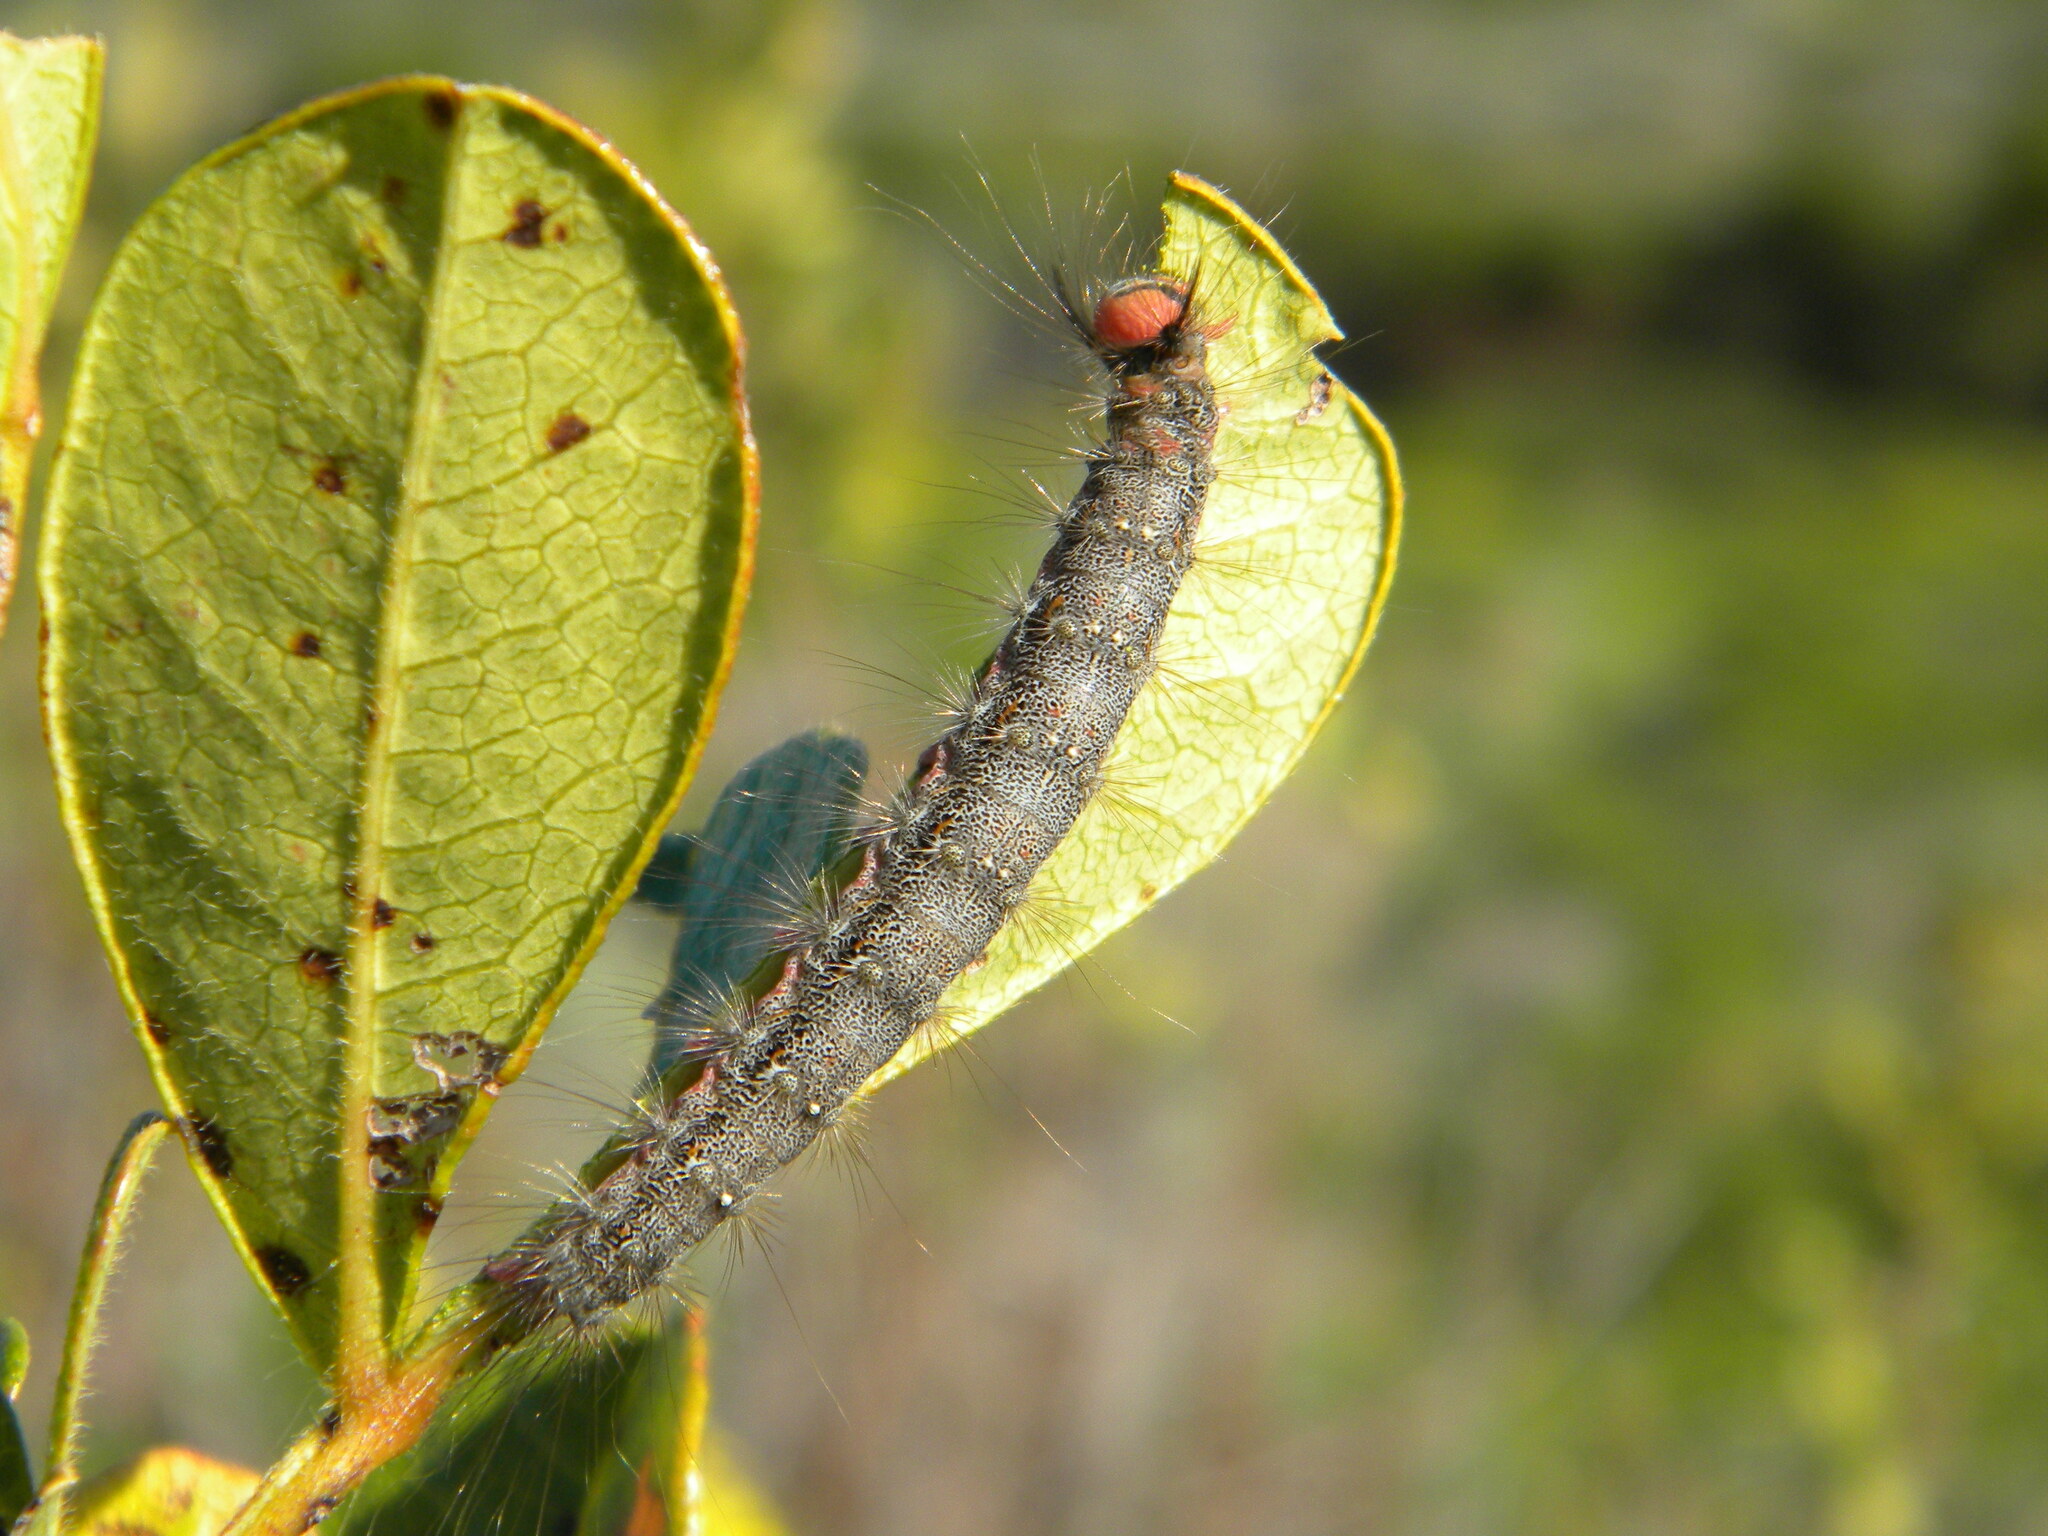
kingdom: Animalia
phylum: Arthropoda
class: Insecta
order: Lepidoptera
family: Erebidae
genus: Lymantria
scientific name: Lymantria Morasa modesta
